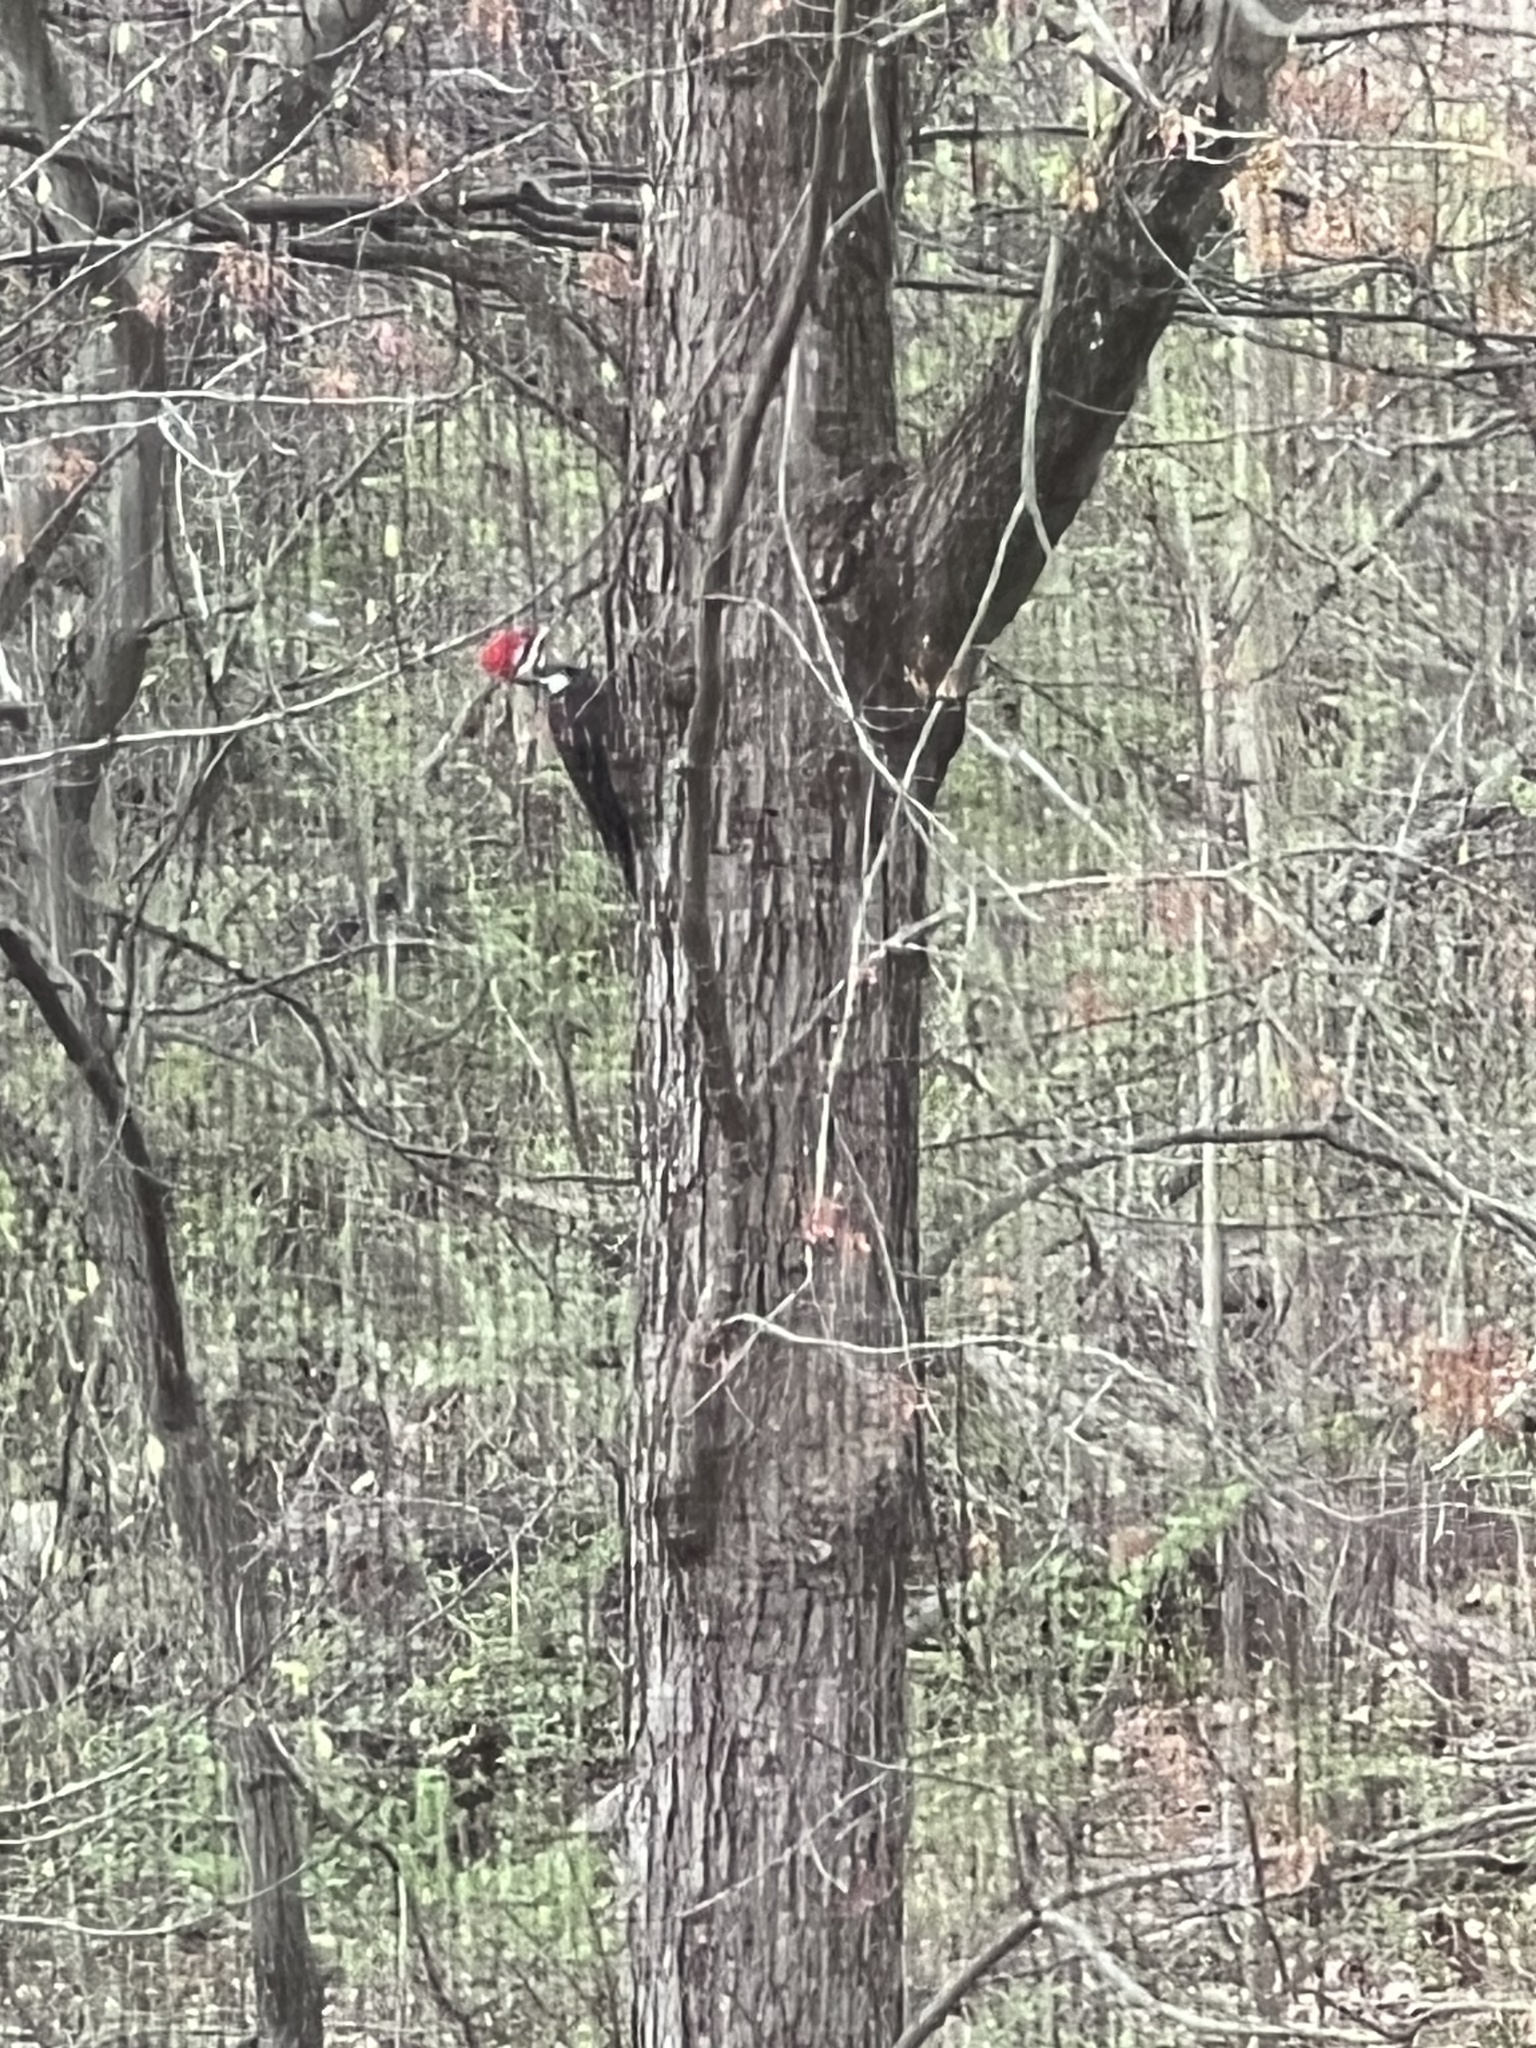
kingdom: Animalia
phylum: Chordata
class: Aves
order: Piciformes
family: Picidae
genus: Dryocopus
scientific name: Dryocopus pileatus
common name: Pileated woodpecker
